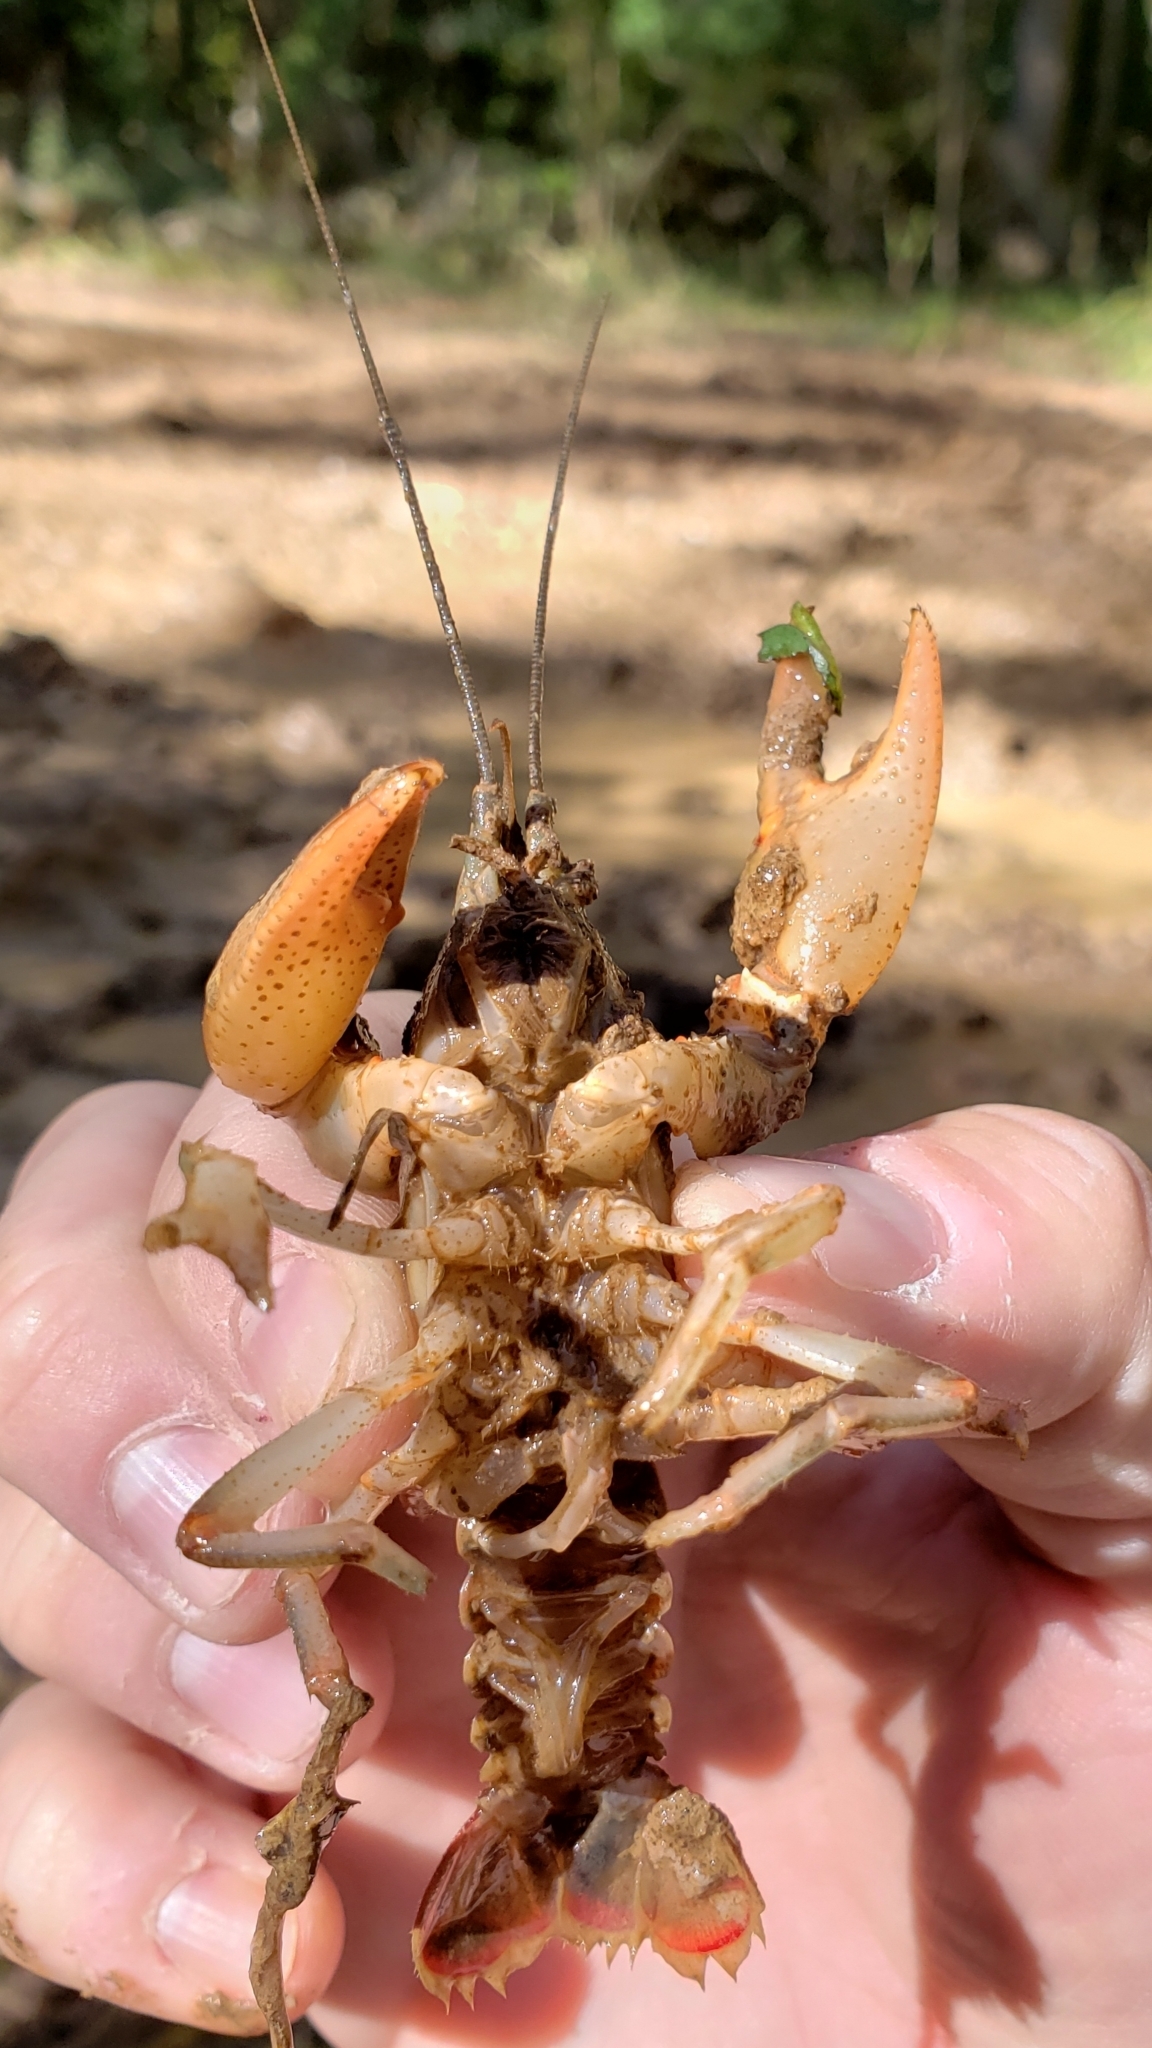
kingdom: Animalia
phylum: Arthropoda
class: Malacostraca
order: Decapoda
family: Cambaridae
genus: Lacunicambarus
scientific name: Lacunicambarus ludovicianus
